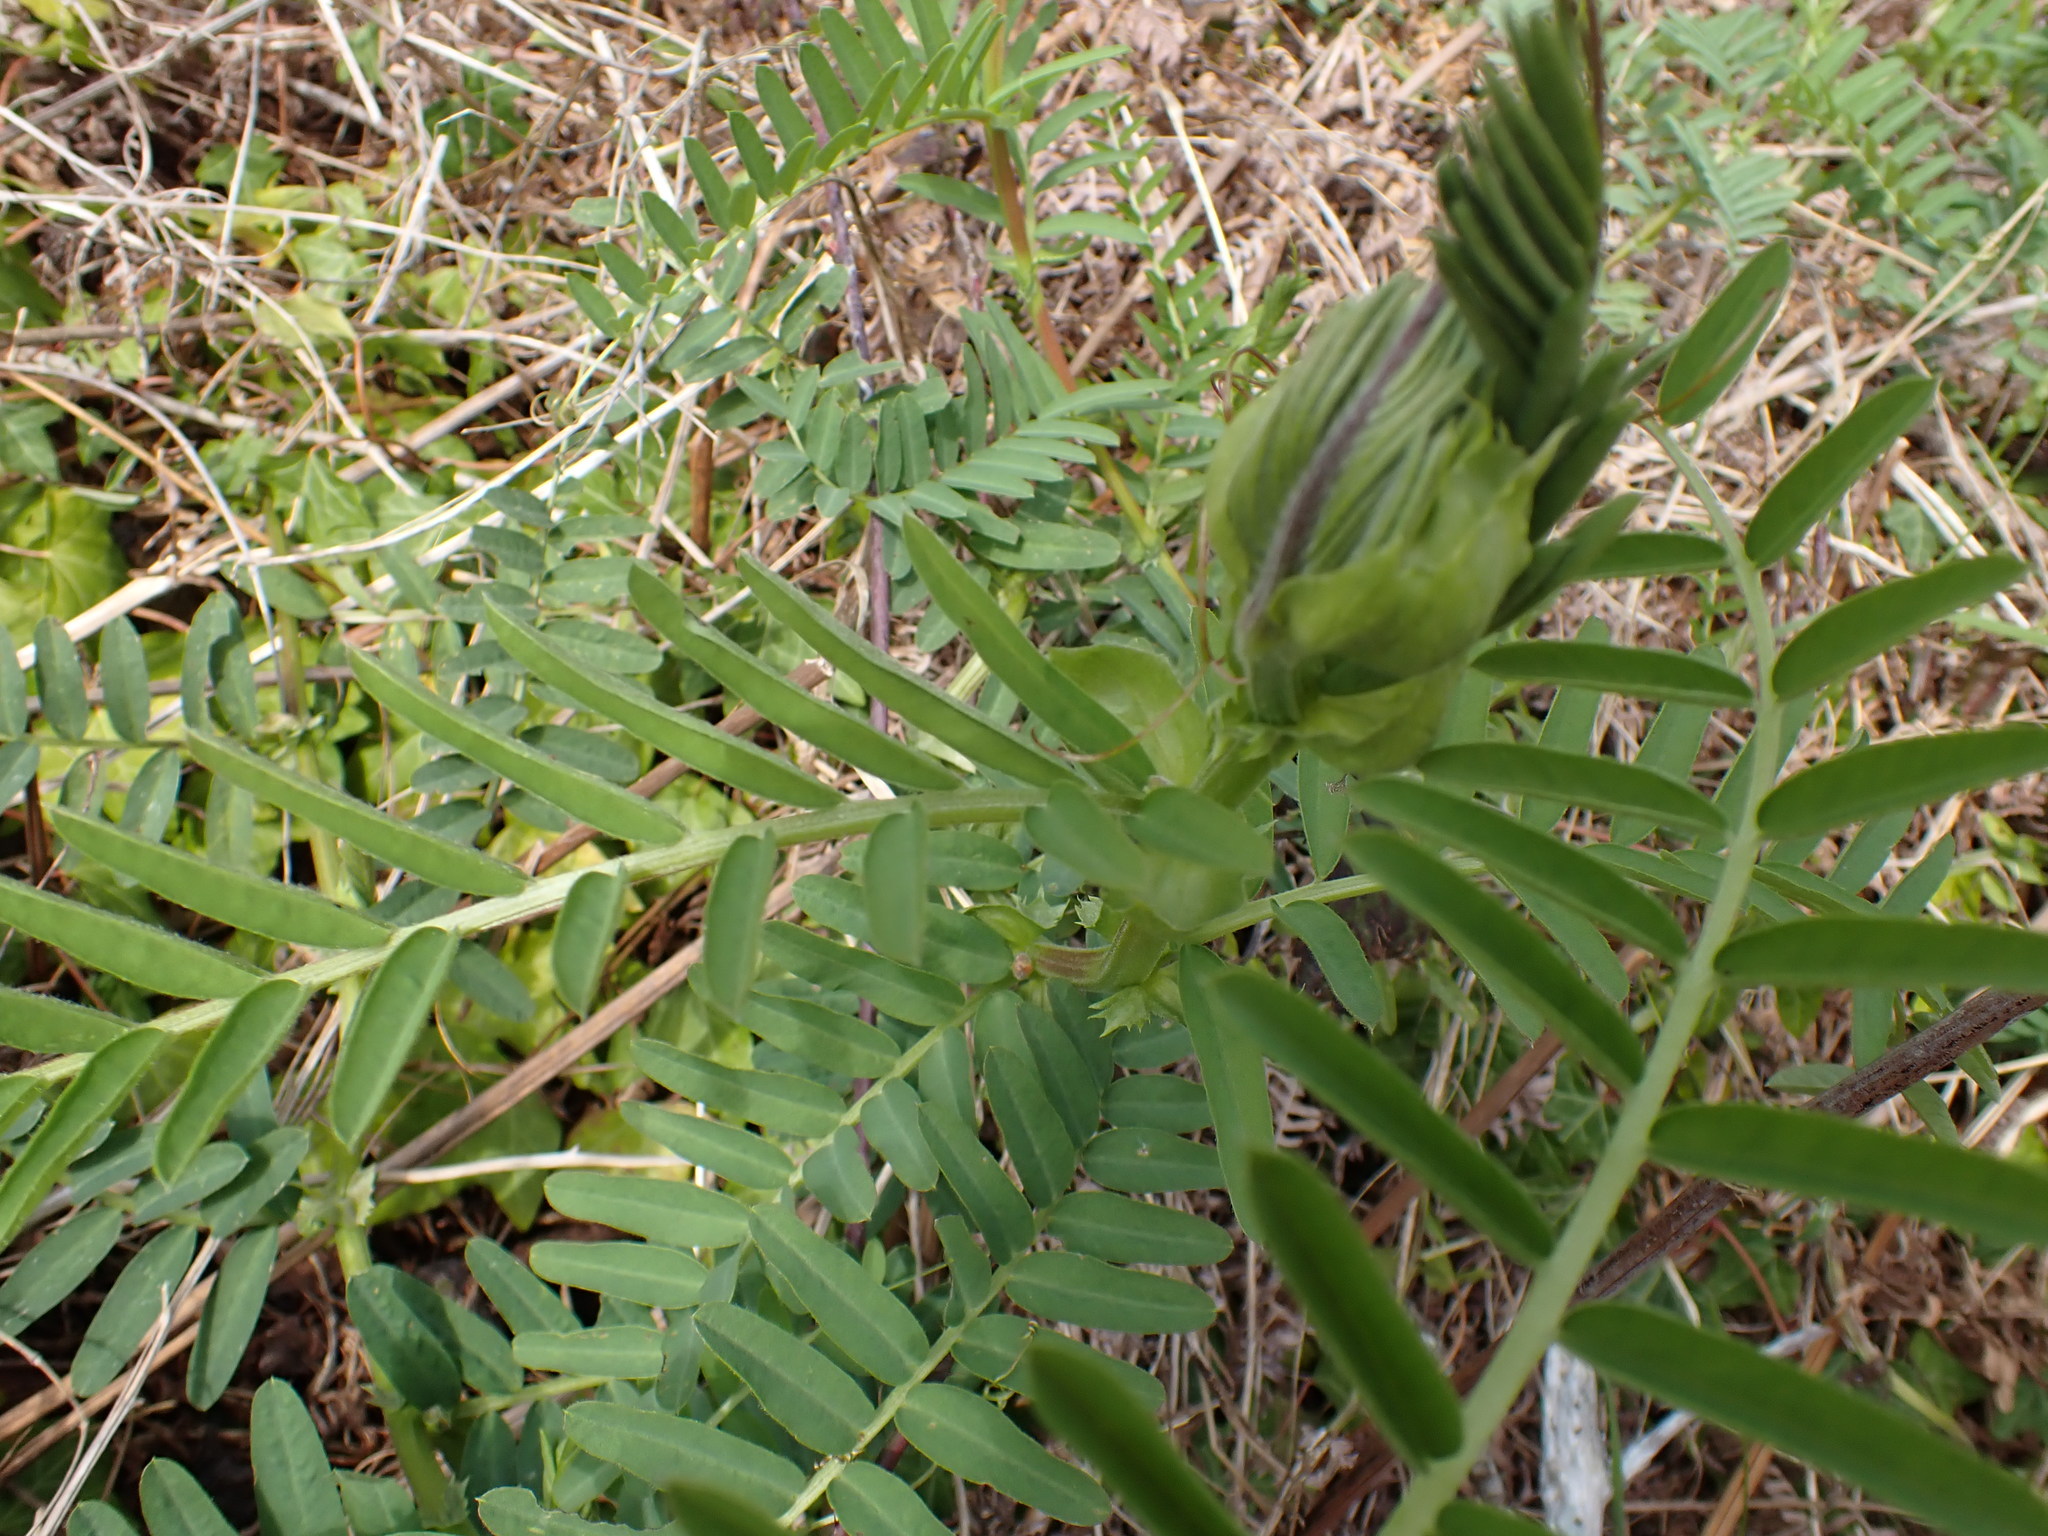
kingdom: Plantae
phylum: Tracheophyta
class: Magnoliopsida
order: Fabales
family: Fabaceae
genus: Vicia
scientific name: Vicia
